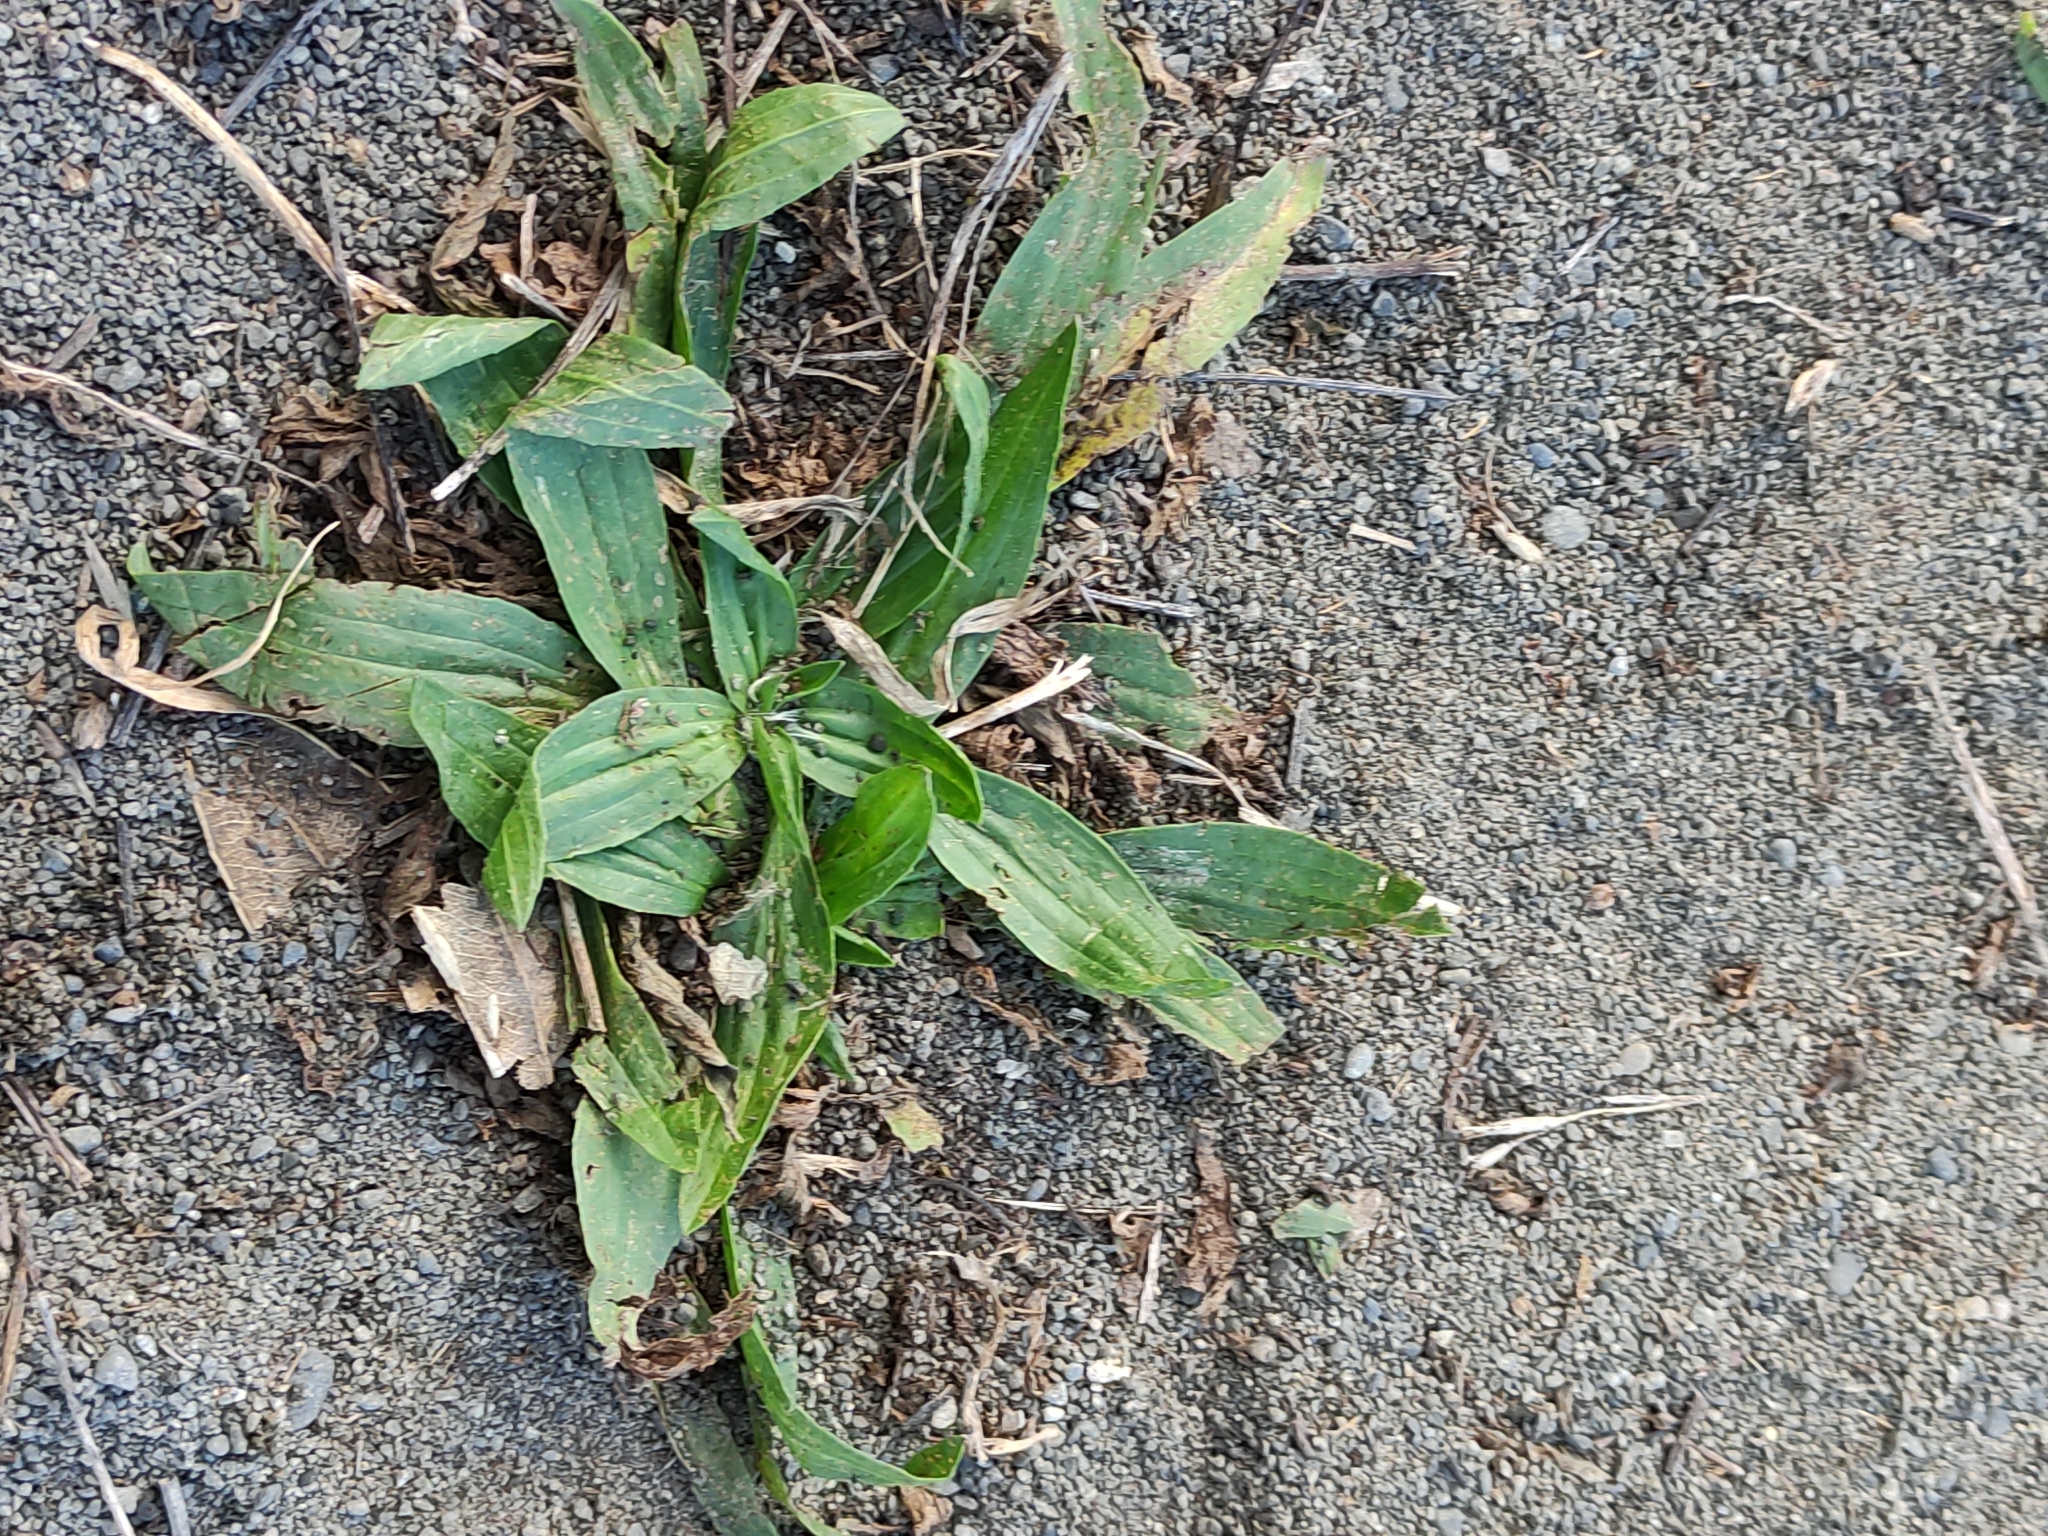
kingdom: Plantae
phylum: Tracheophyta
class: Magnoliopsida
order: Lamiales
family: Plantaginaceae
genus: Plantago
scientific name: Plantago lanceolata
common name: Ribwort plantain
